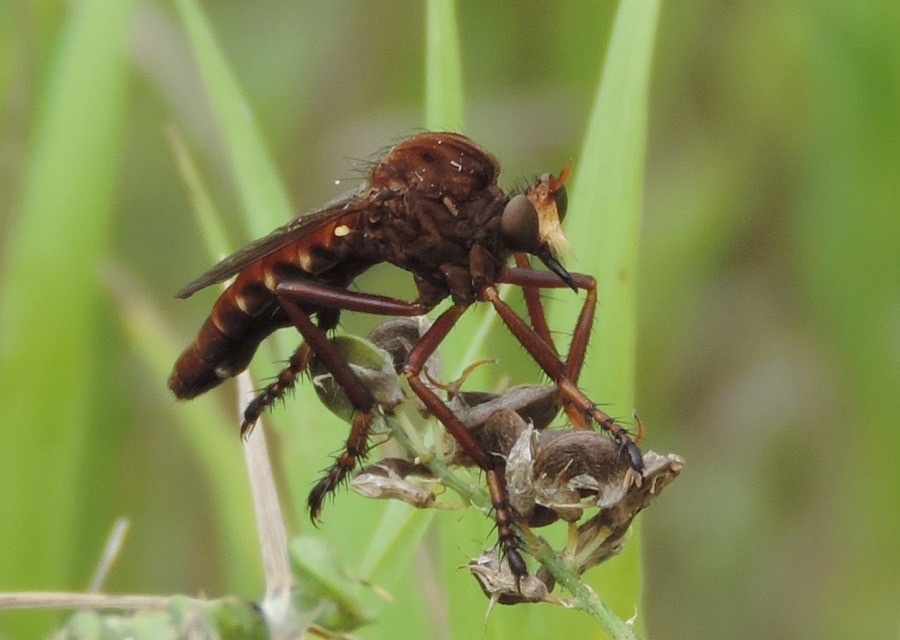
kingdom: Animalia
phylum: Arthropoda
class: Insecta
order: Diptera
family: Asilidae
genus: Diogmites
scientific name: Diogmites basalis
